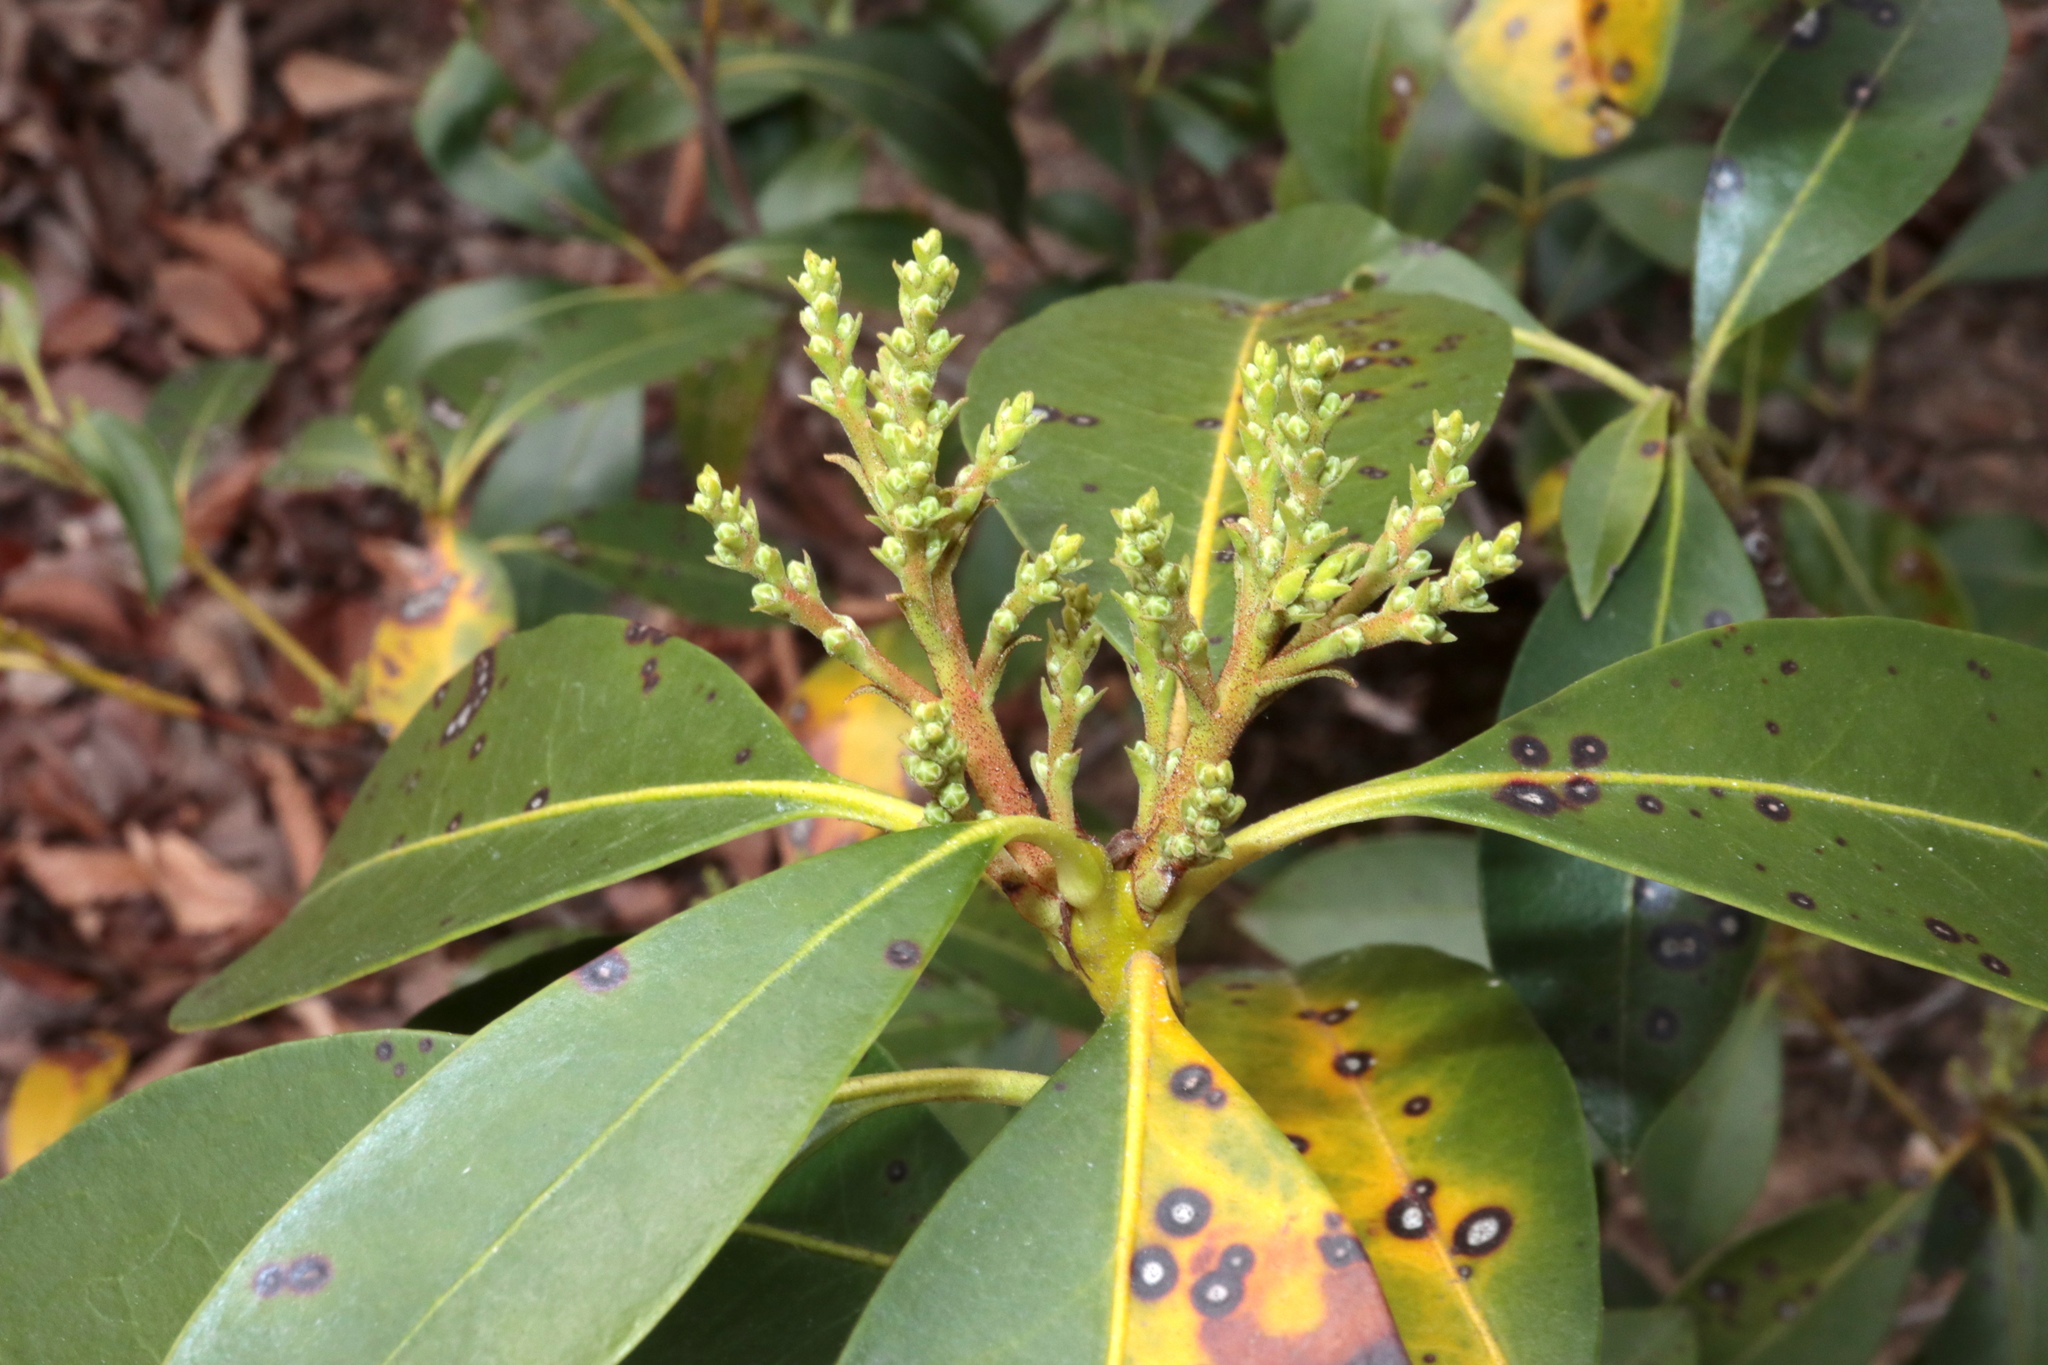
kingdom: Plantae
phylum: Tracheophyta
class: Magnoliopsida
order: Ericales
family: Ericaceae
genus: Kalmia
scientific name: Kalmia latifolia
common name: Mountain-laurel
